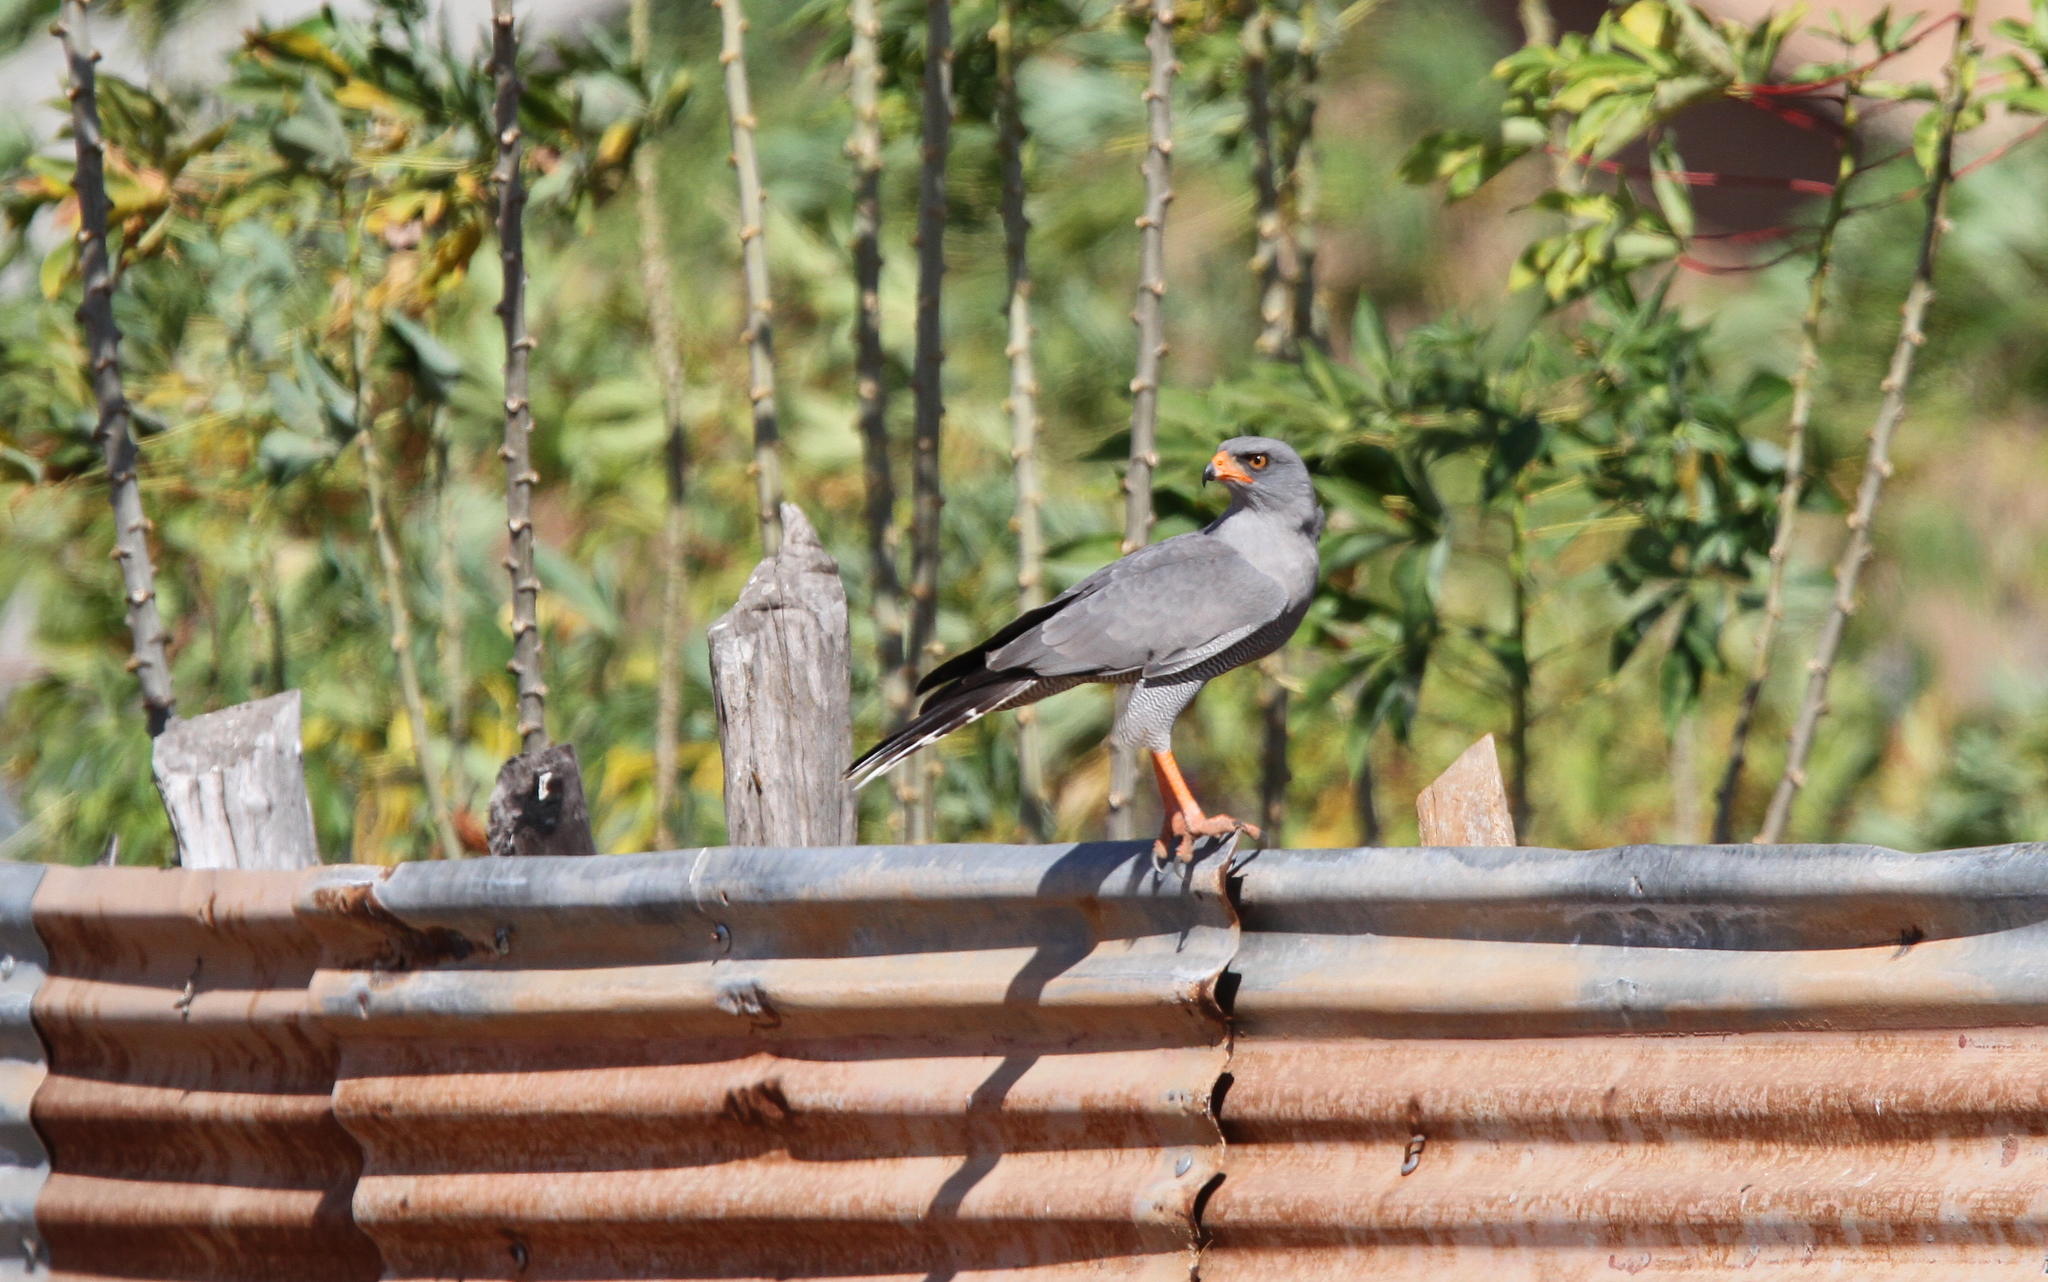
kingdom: Animalia
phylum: Chordata
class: Aves
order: Accipitriformes
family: Accipitridae
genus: Melierax
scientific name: Melierax metabates
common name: Dark chanting-goshawk
